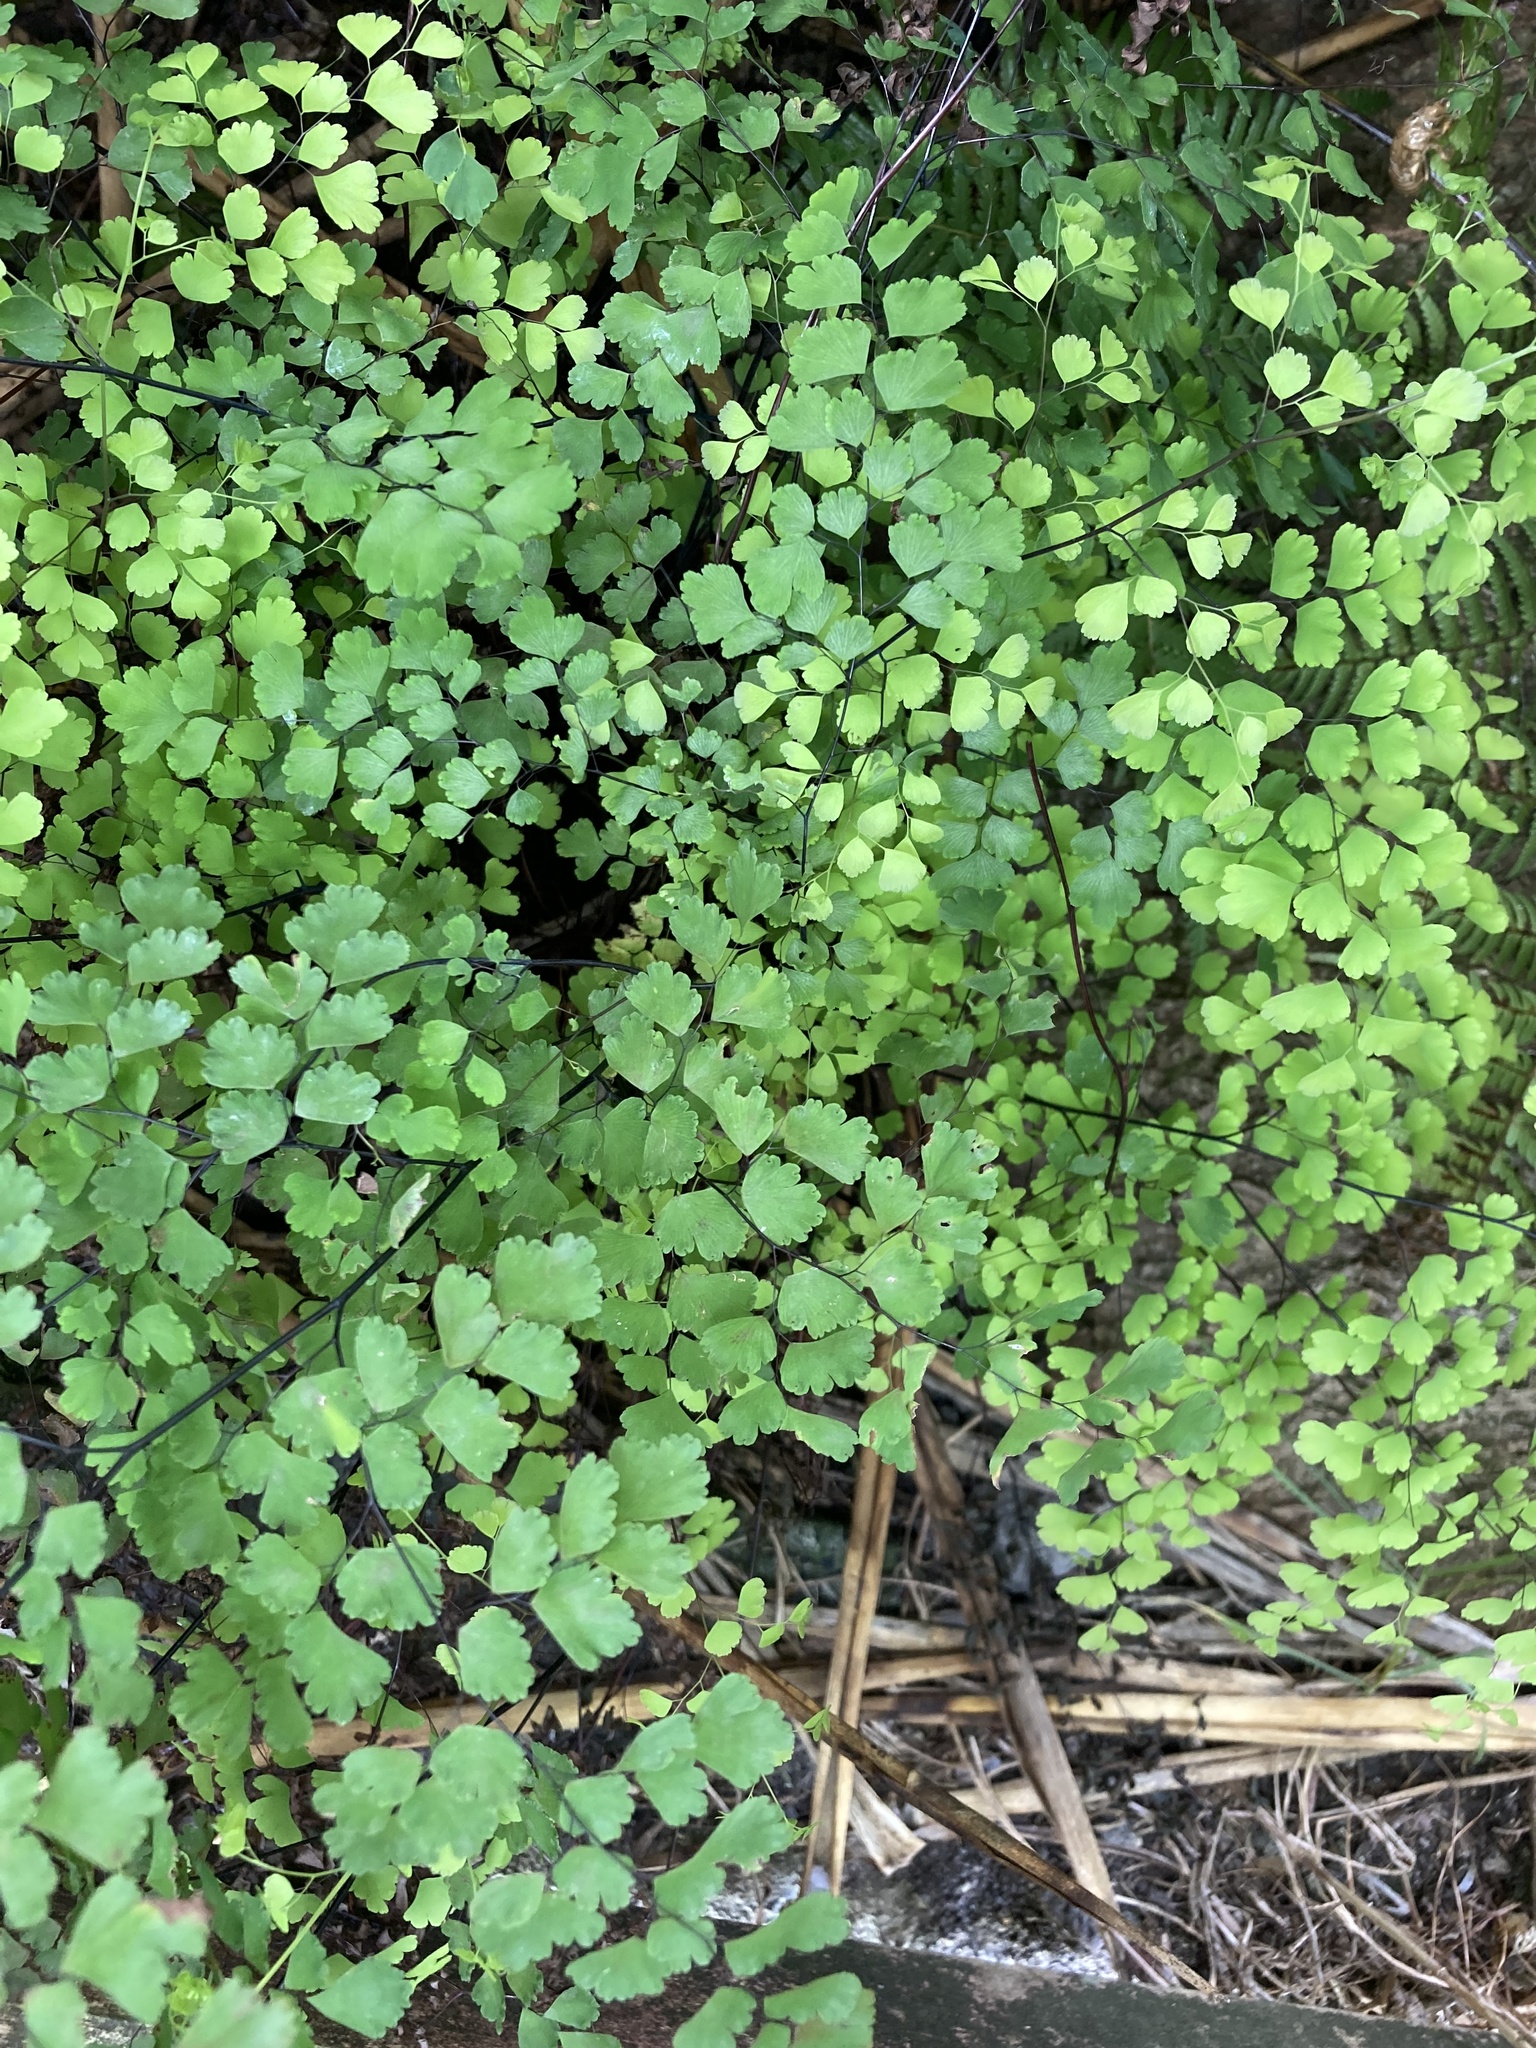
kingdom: Plantae
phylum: Tracheophyta
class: Polypodiopsida
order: Polypodiales
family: Pteridaceae
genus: Adiantum
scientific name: Adiantum raddianum
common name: Delta maidenhair fern
